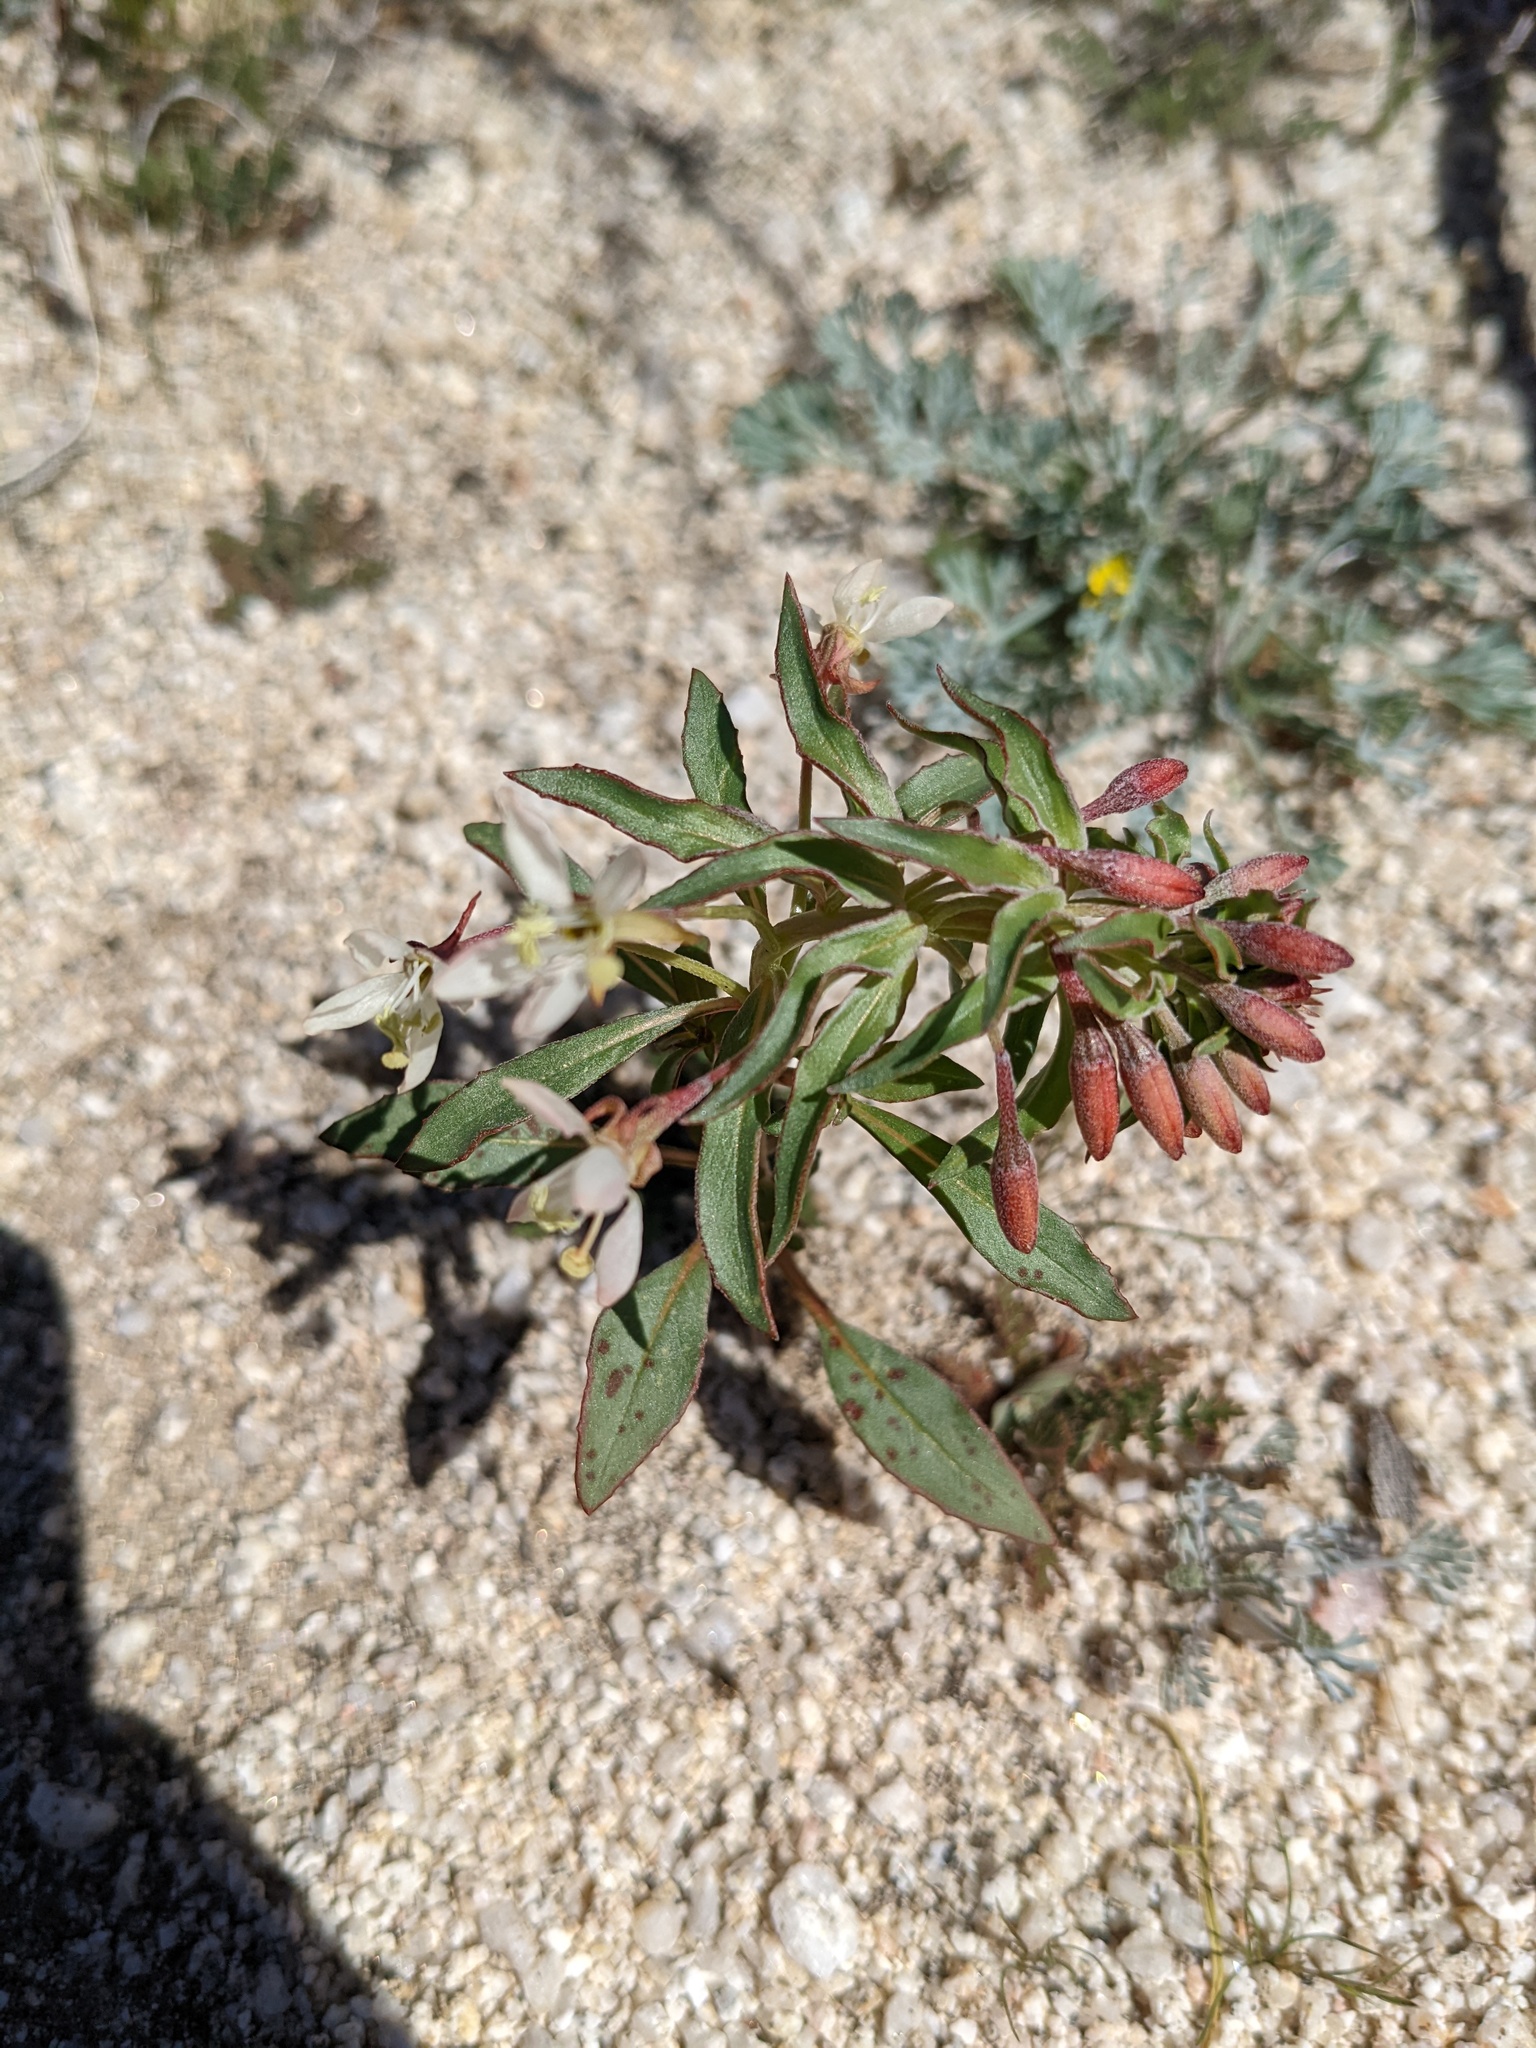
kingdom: Plantae
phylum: Tracheophyta
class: Magnoliopsida
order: Myrtales
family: Onagraceae
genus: Eremothera
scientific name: Eremothera boothii
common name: Booth's evening primrose
